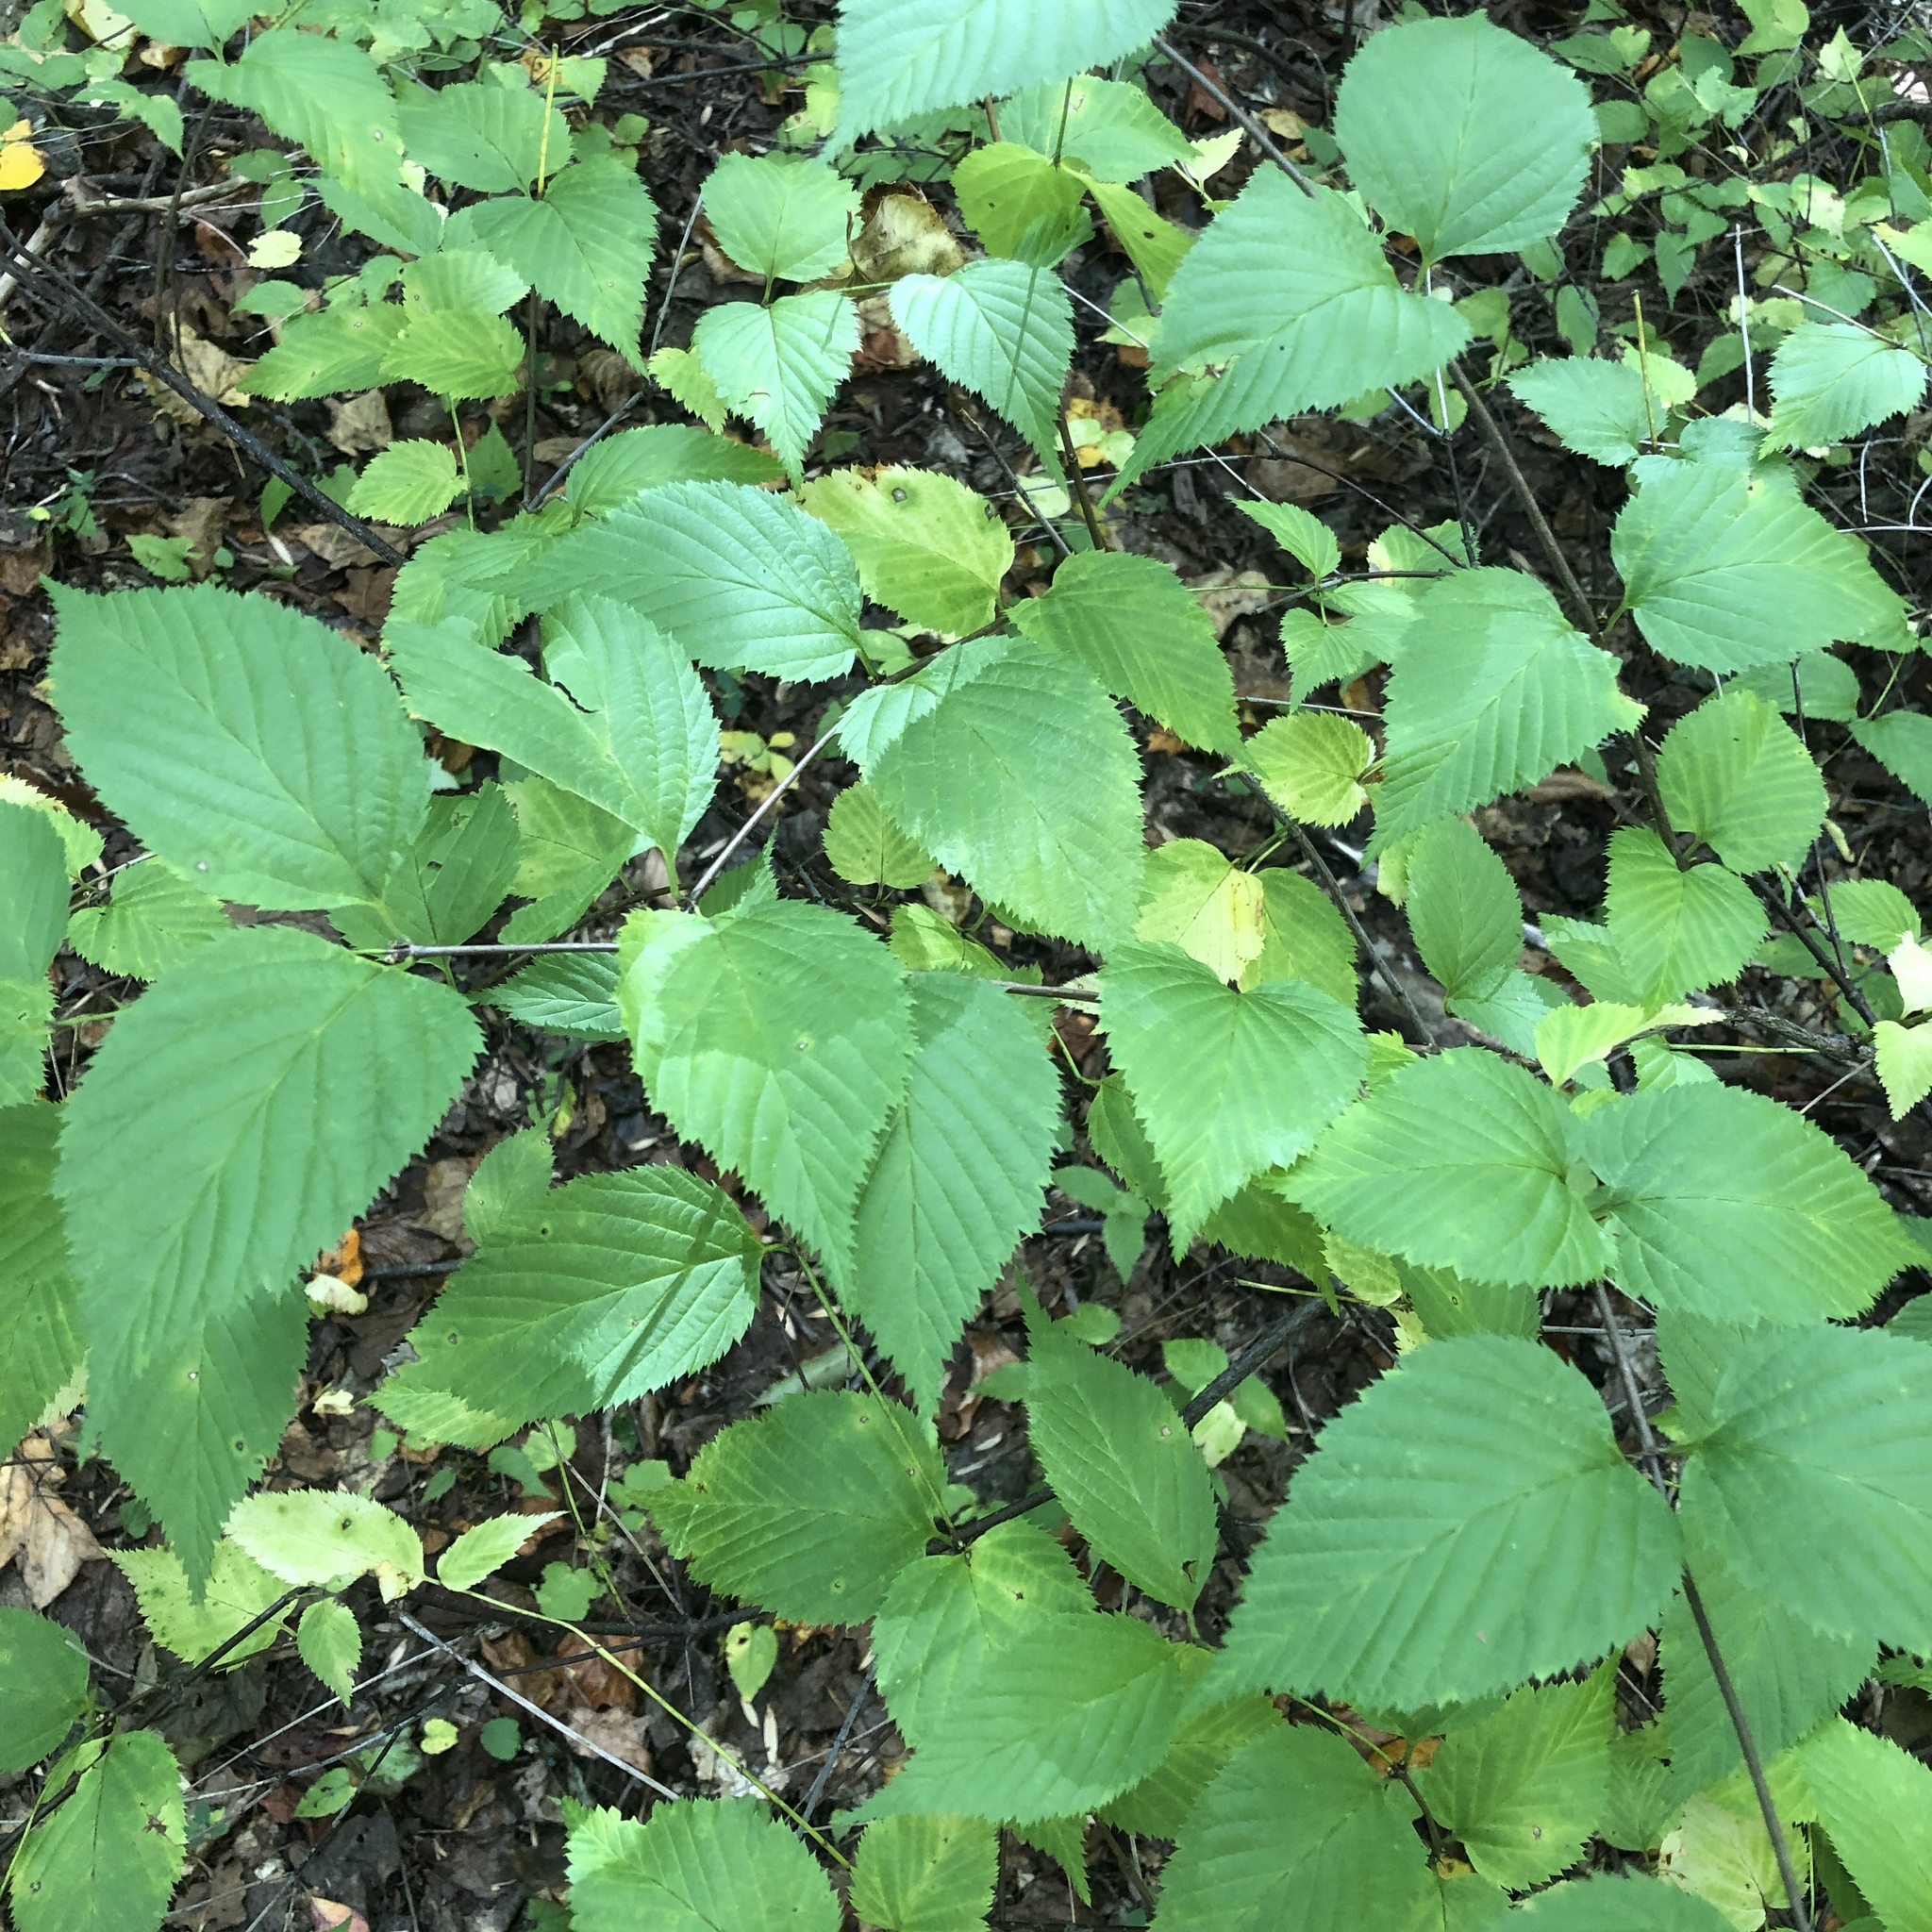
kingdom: Plantae
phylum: Tracheophyta
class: Magnoliopsida
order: Rosales
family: Rosaceae
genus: Rhodotypos
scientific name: Rhodotypos scandens
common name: Jetbead
